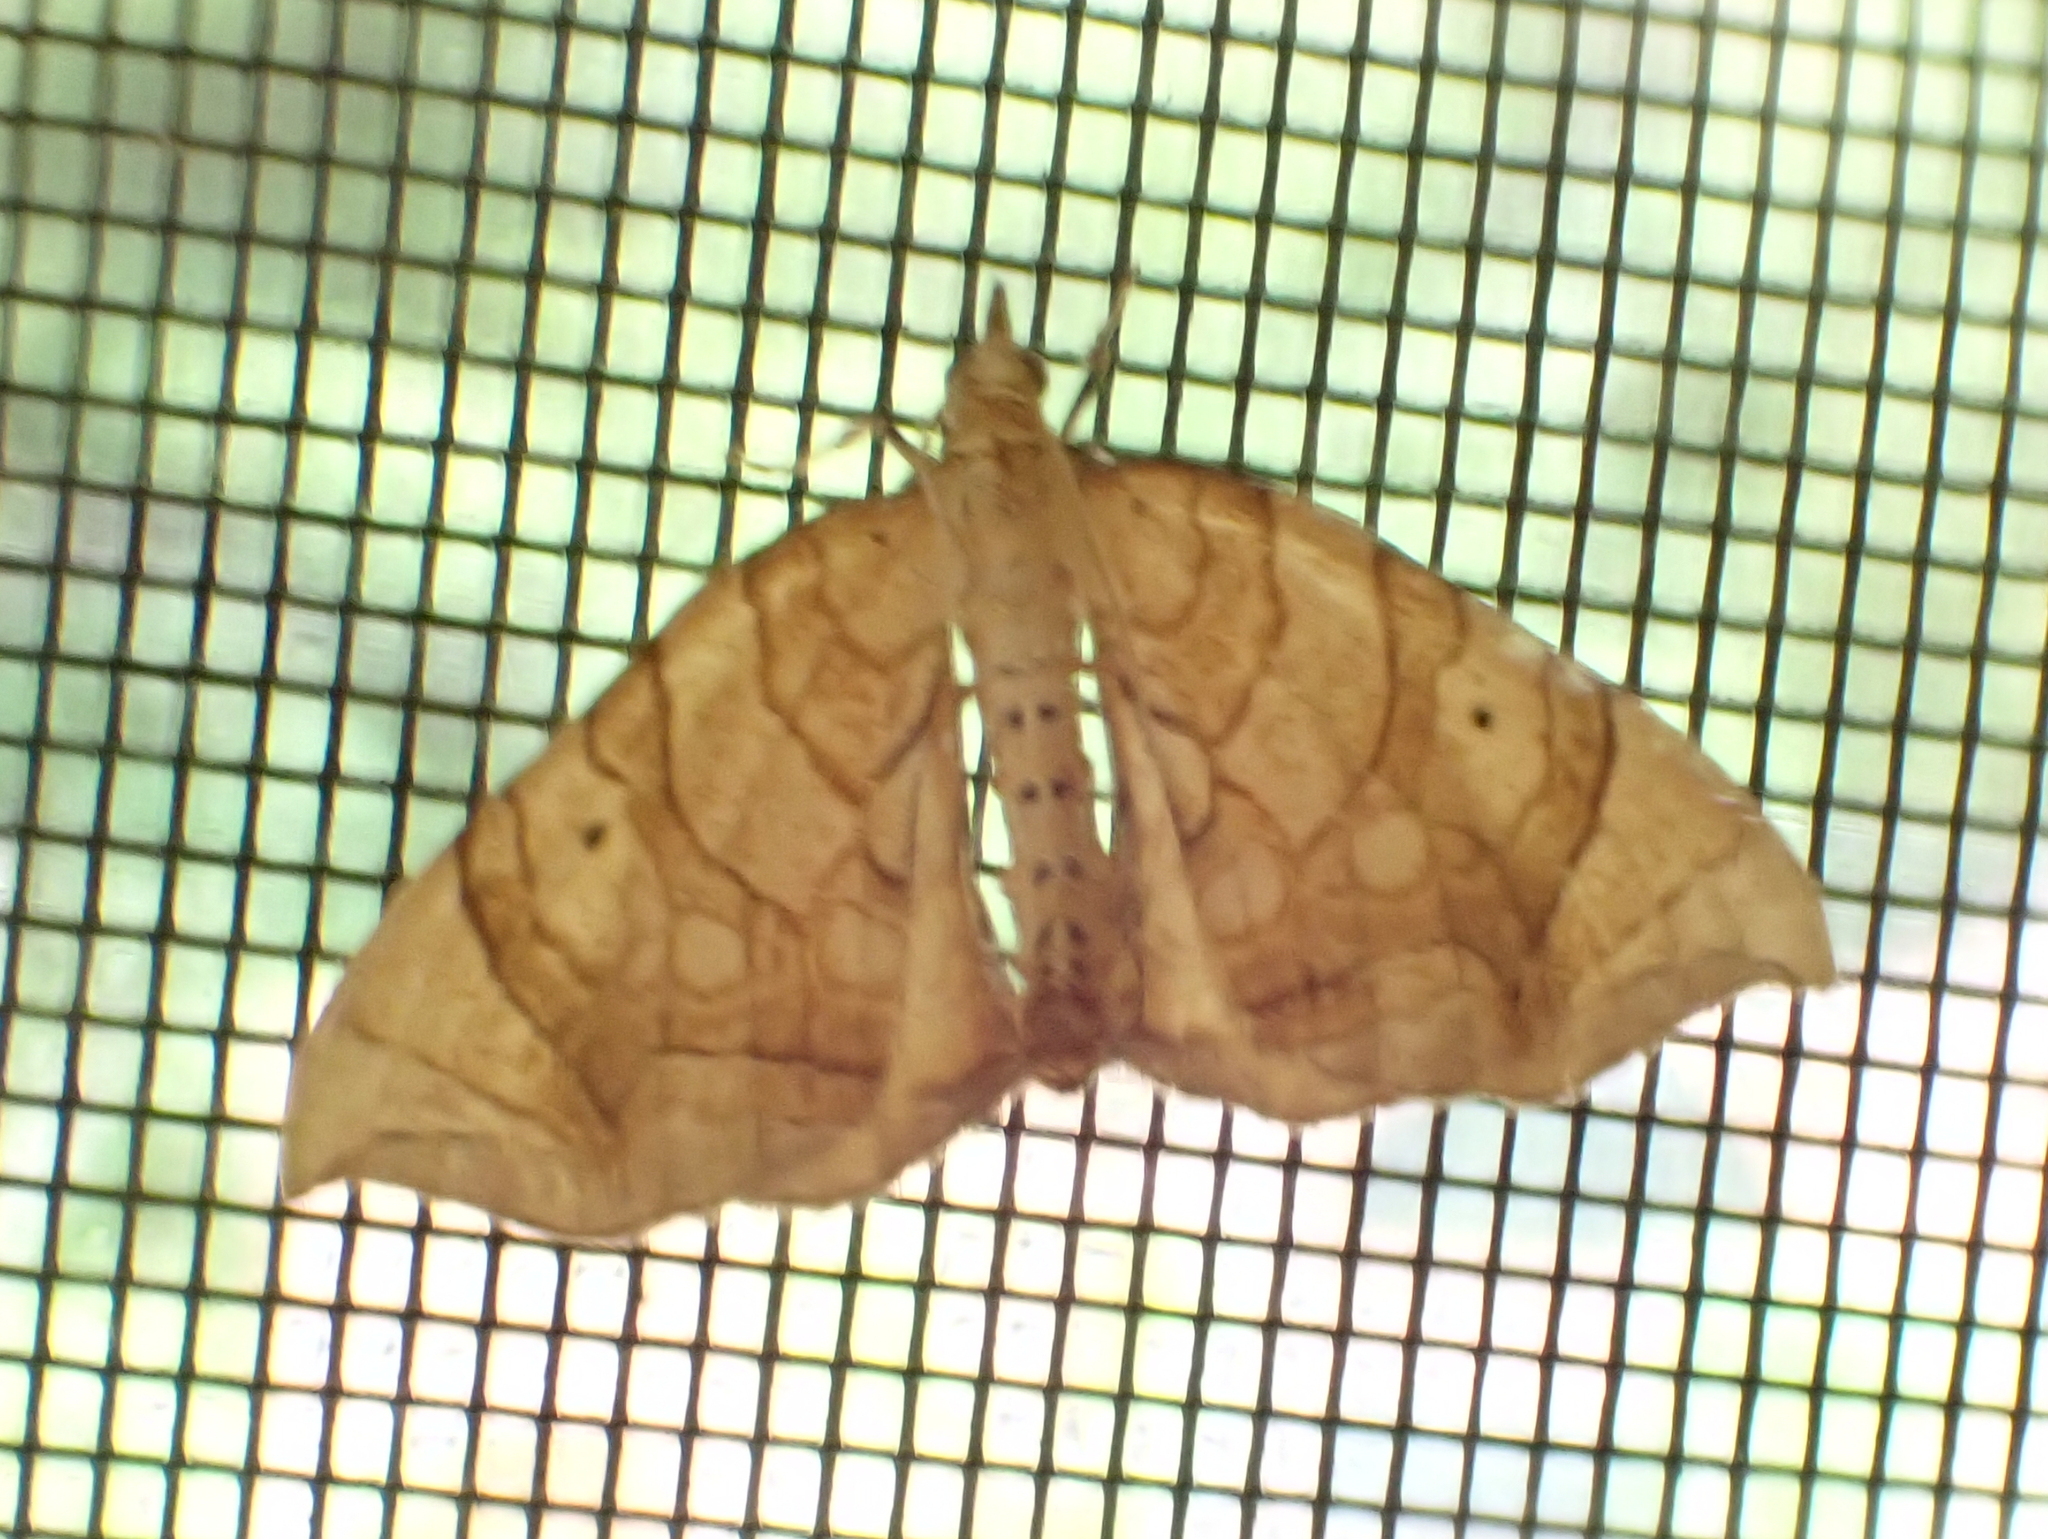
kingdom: Animalia
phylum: Arthropoda
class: Insecta
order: Lepidoptera
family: Geometridae
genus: Eulithis
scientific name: Eulithis
